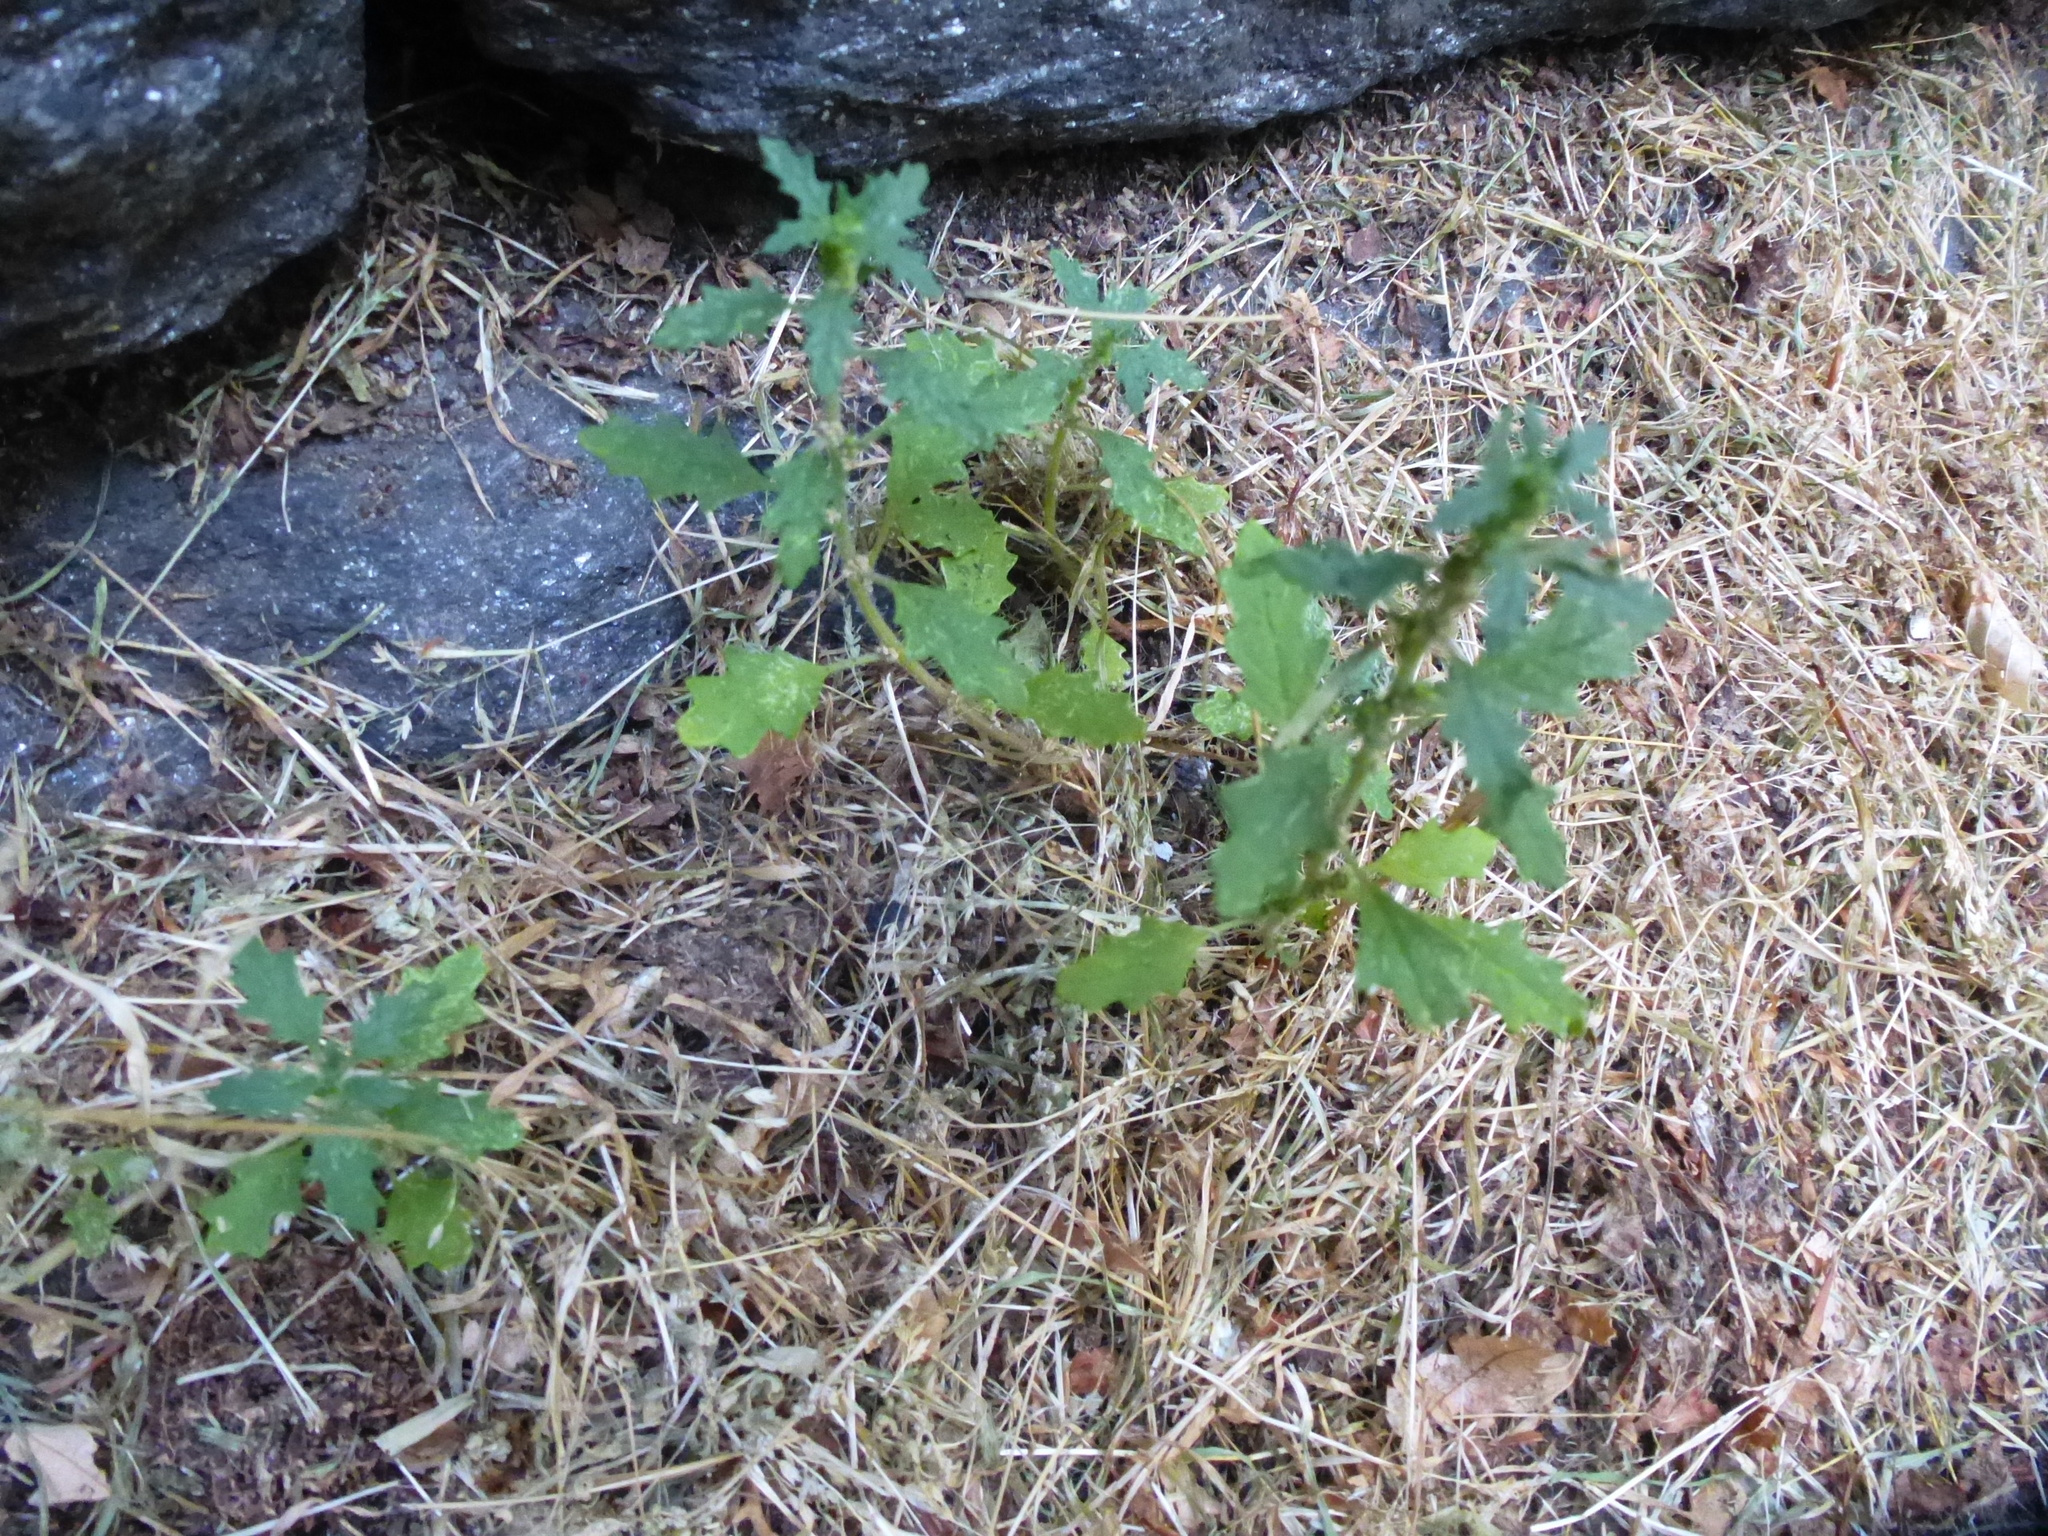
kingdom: Plantae
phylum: Tracheophyta
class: Magnoliopsida
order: Caryophyllales
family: Amaranthaceae
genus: Dysphania
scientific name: Dysphania pumilio
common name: Clammy goosefoot
